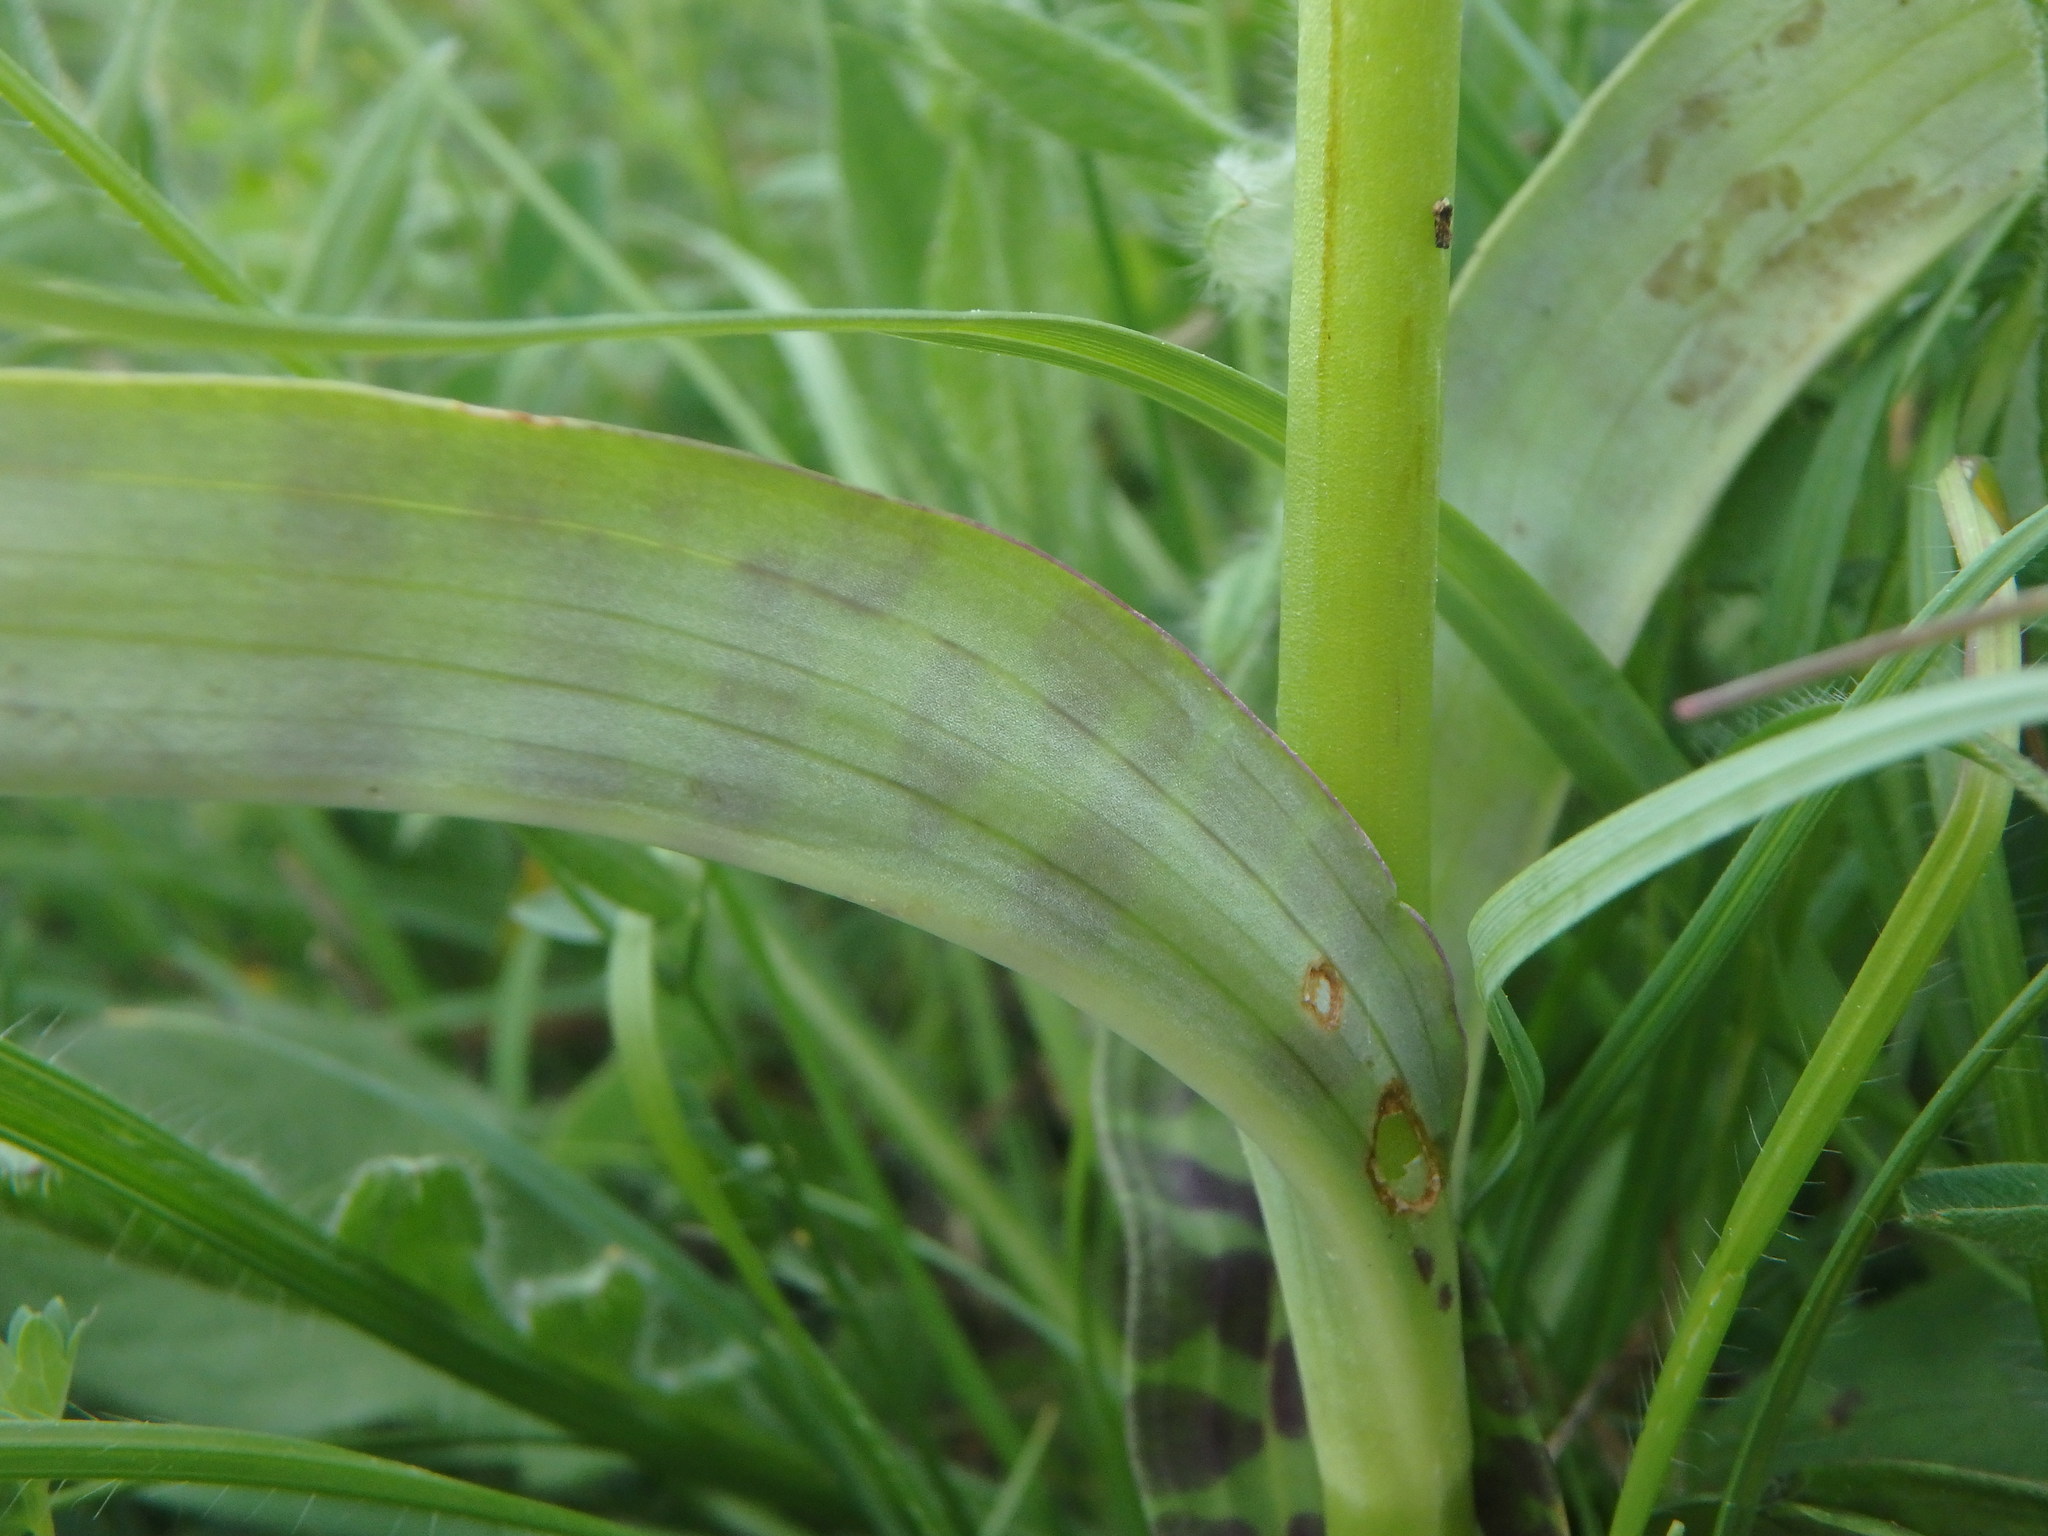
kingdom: Plantae
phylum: Tracheophyta
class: Liliopsida
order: Asparagales
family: Orchidaceae
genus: Dactylorhiza
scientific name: Dactylorhiza maculata
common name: Heath spotted-orchid
